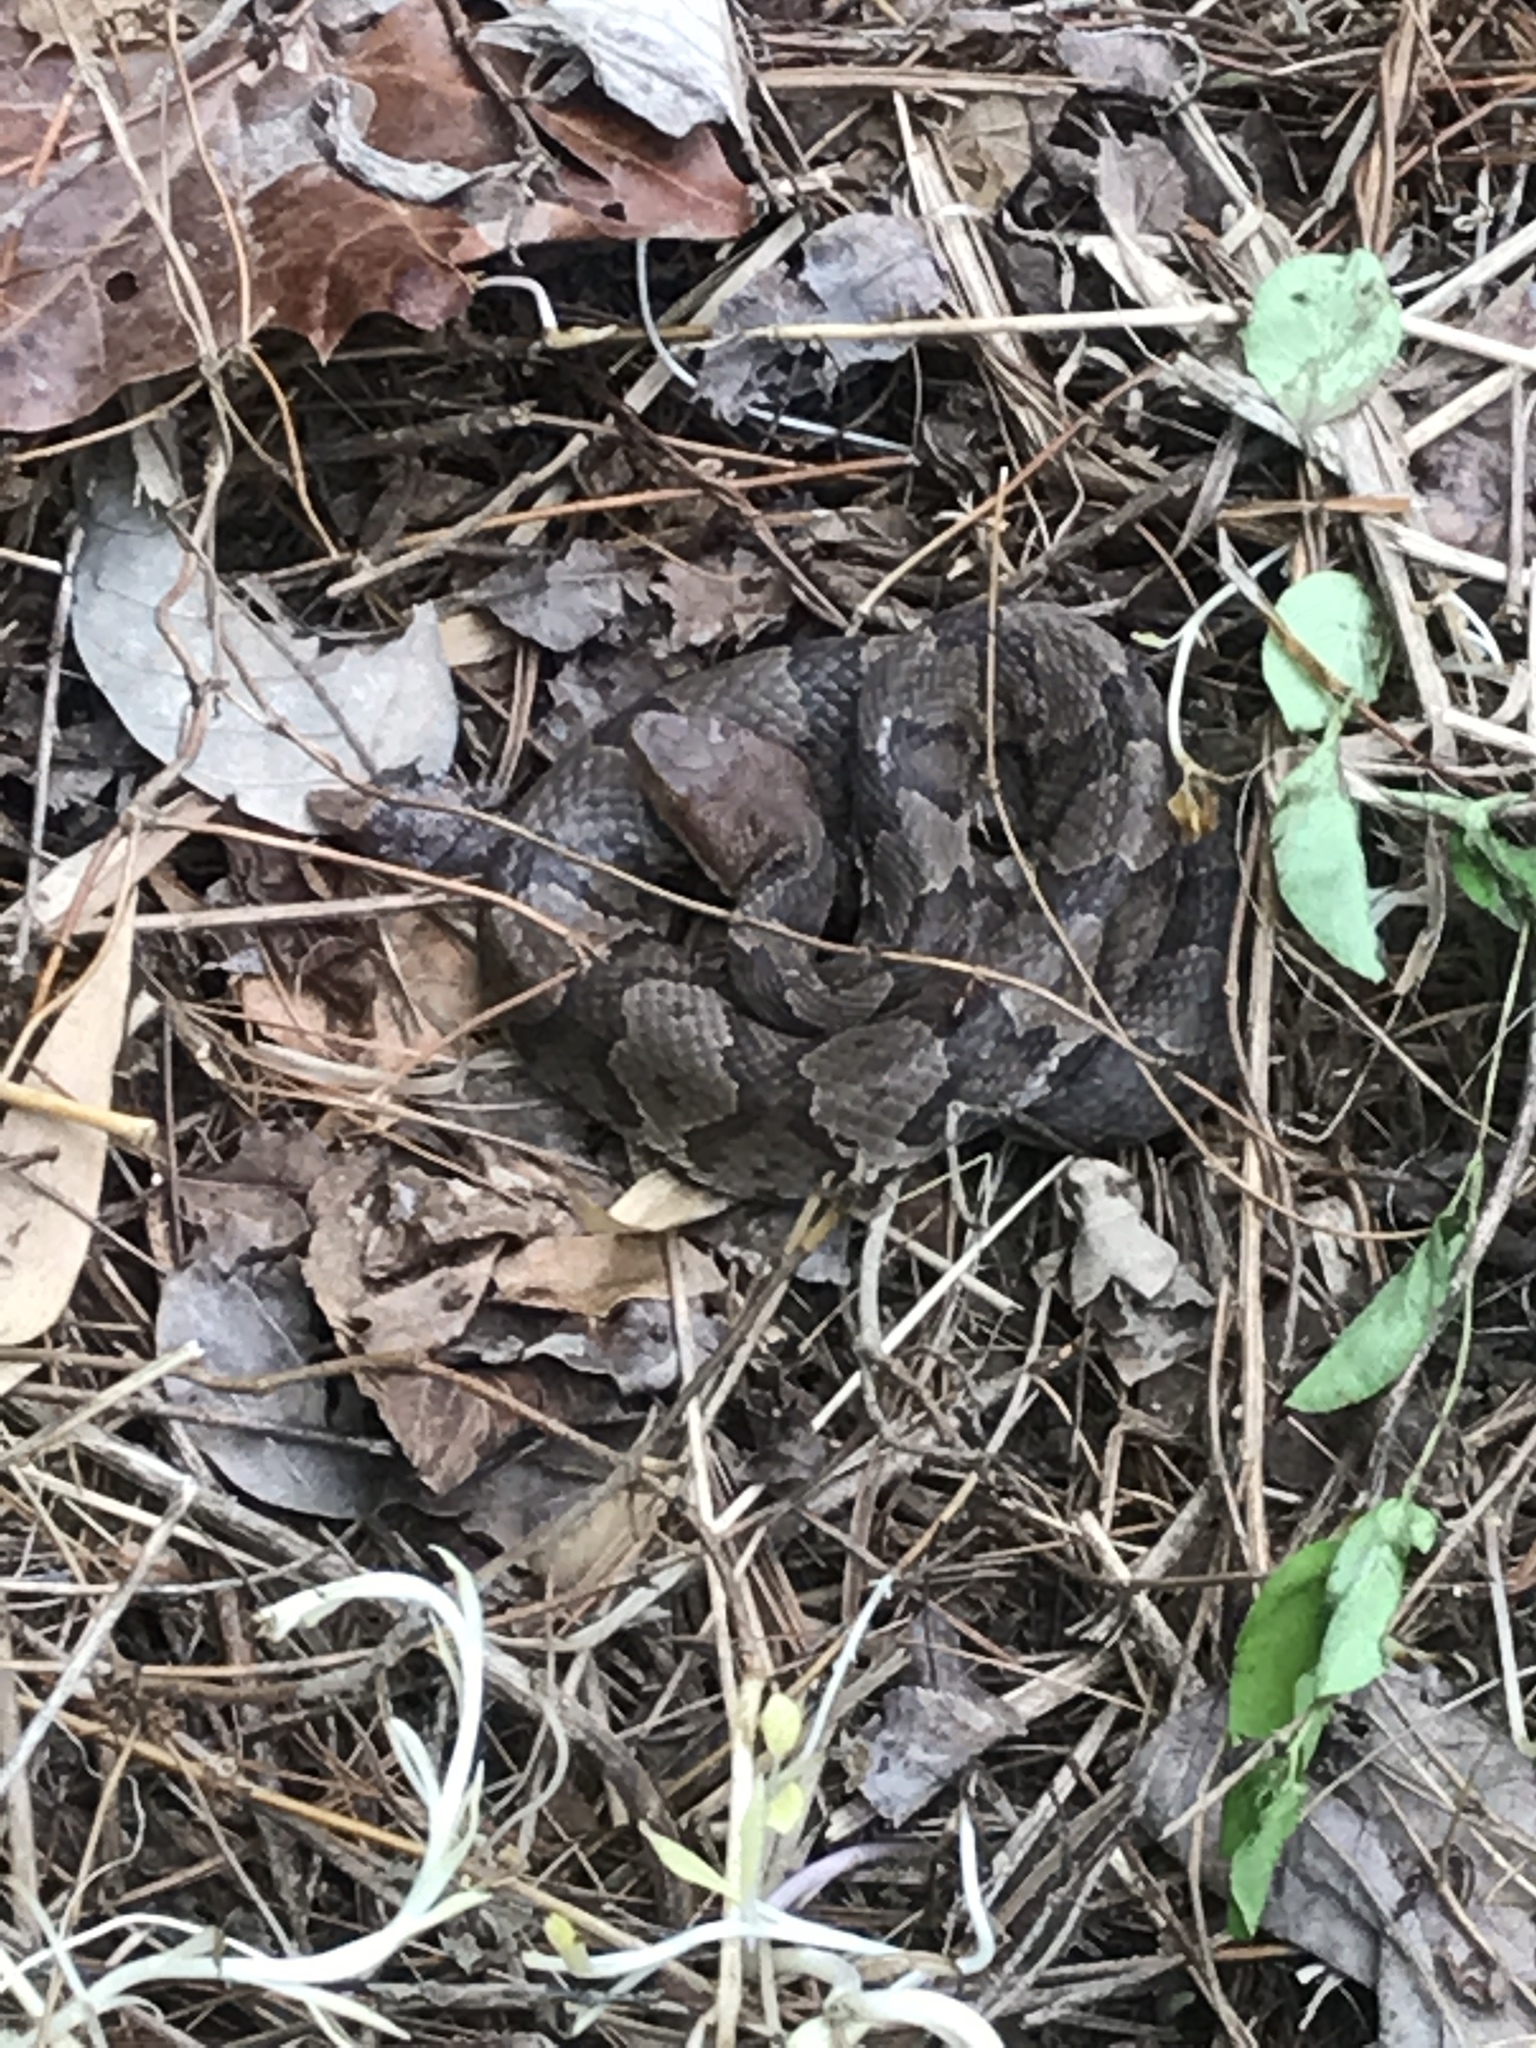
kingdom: Animalia
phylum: Chordata
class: Squamata
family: Viperidae
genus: Agkistrodon
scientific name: Agkistrodon contortrix
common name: Northern copperhead
